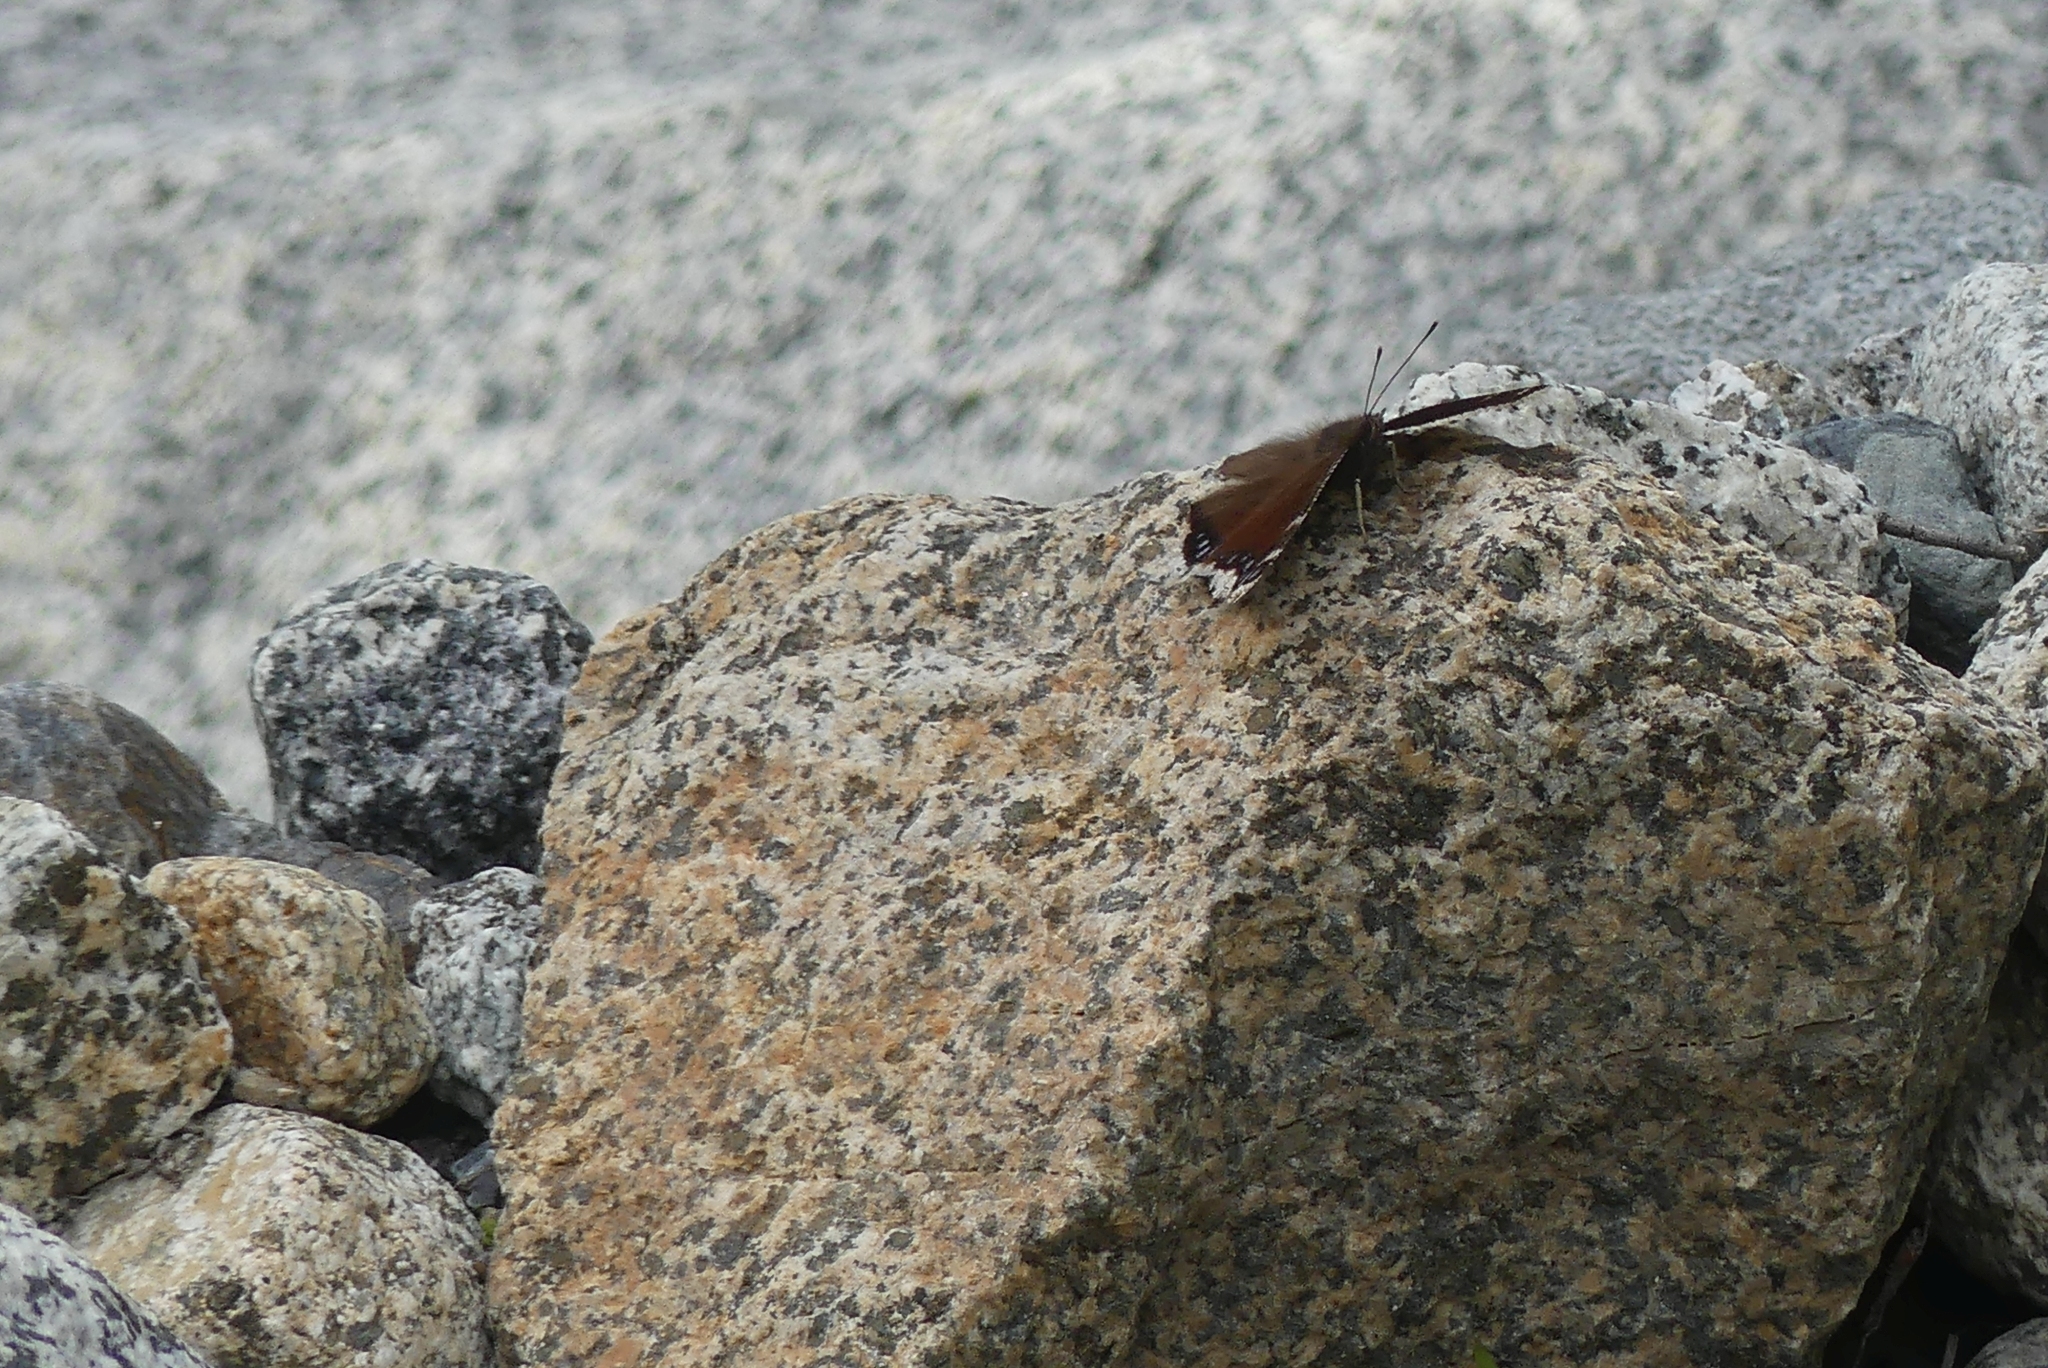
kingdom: Animalia
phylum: Arthropoda
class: Insecta
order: Lepidoptera
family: Nymphalidae
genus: Nymphalis
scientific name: Nymphalis antiopa
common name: Camberwell beauty
